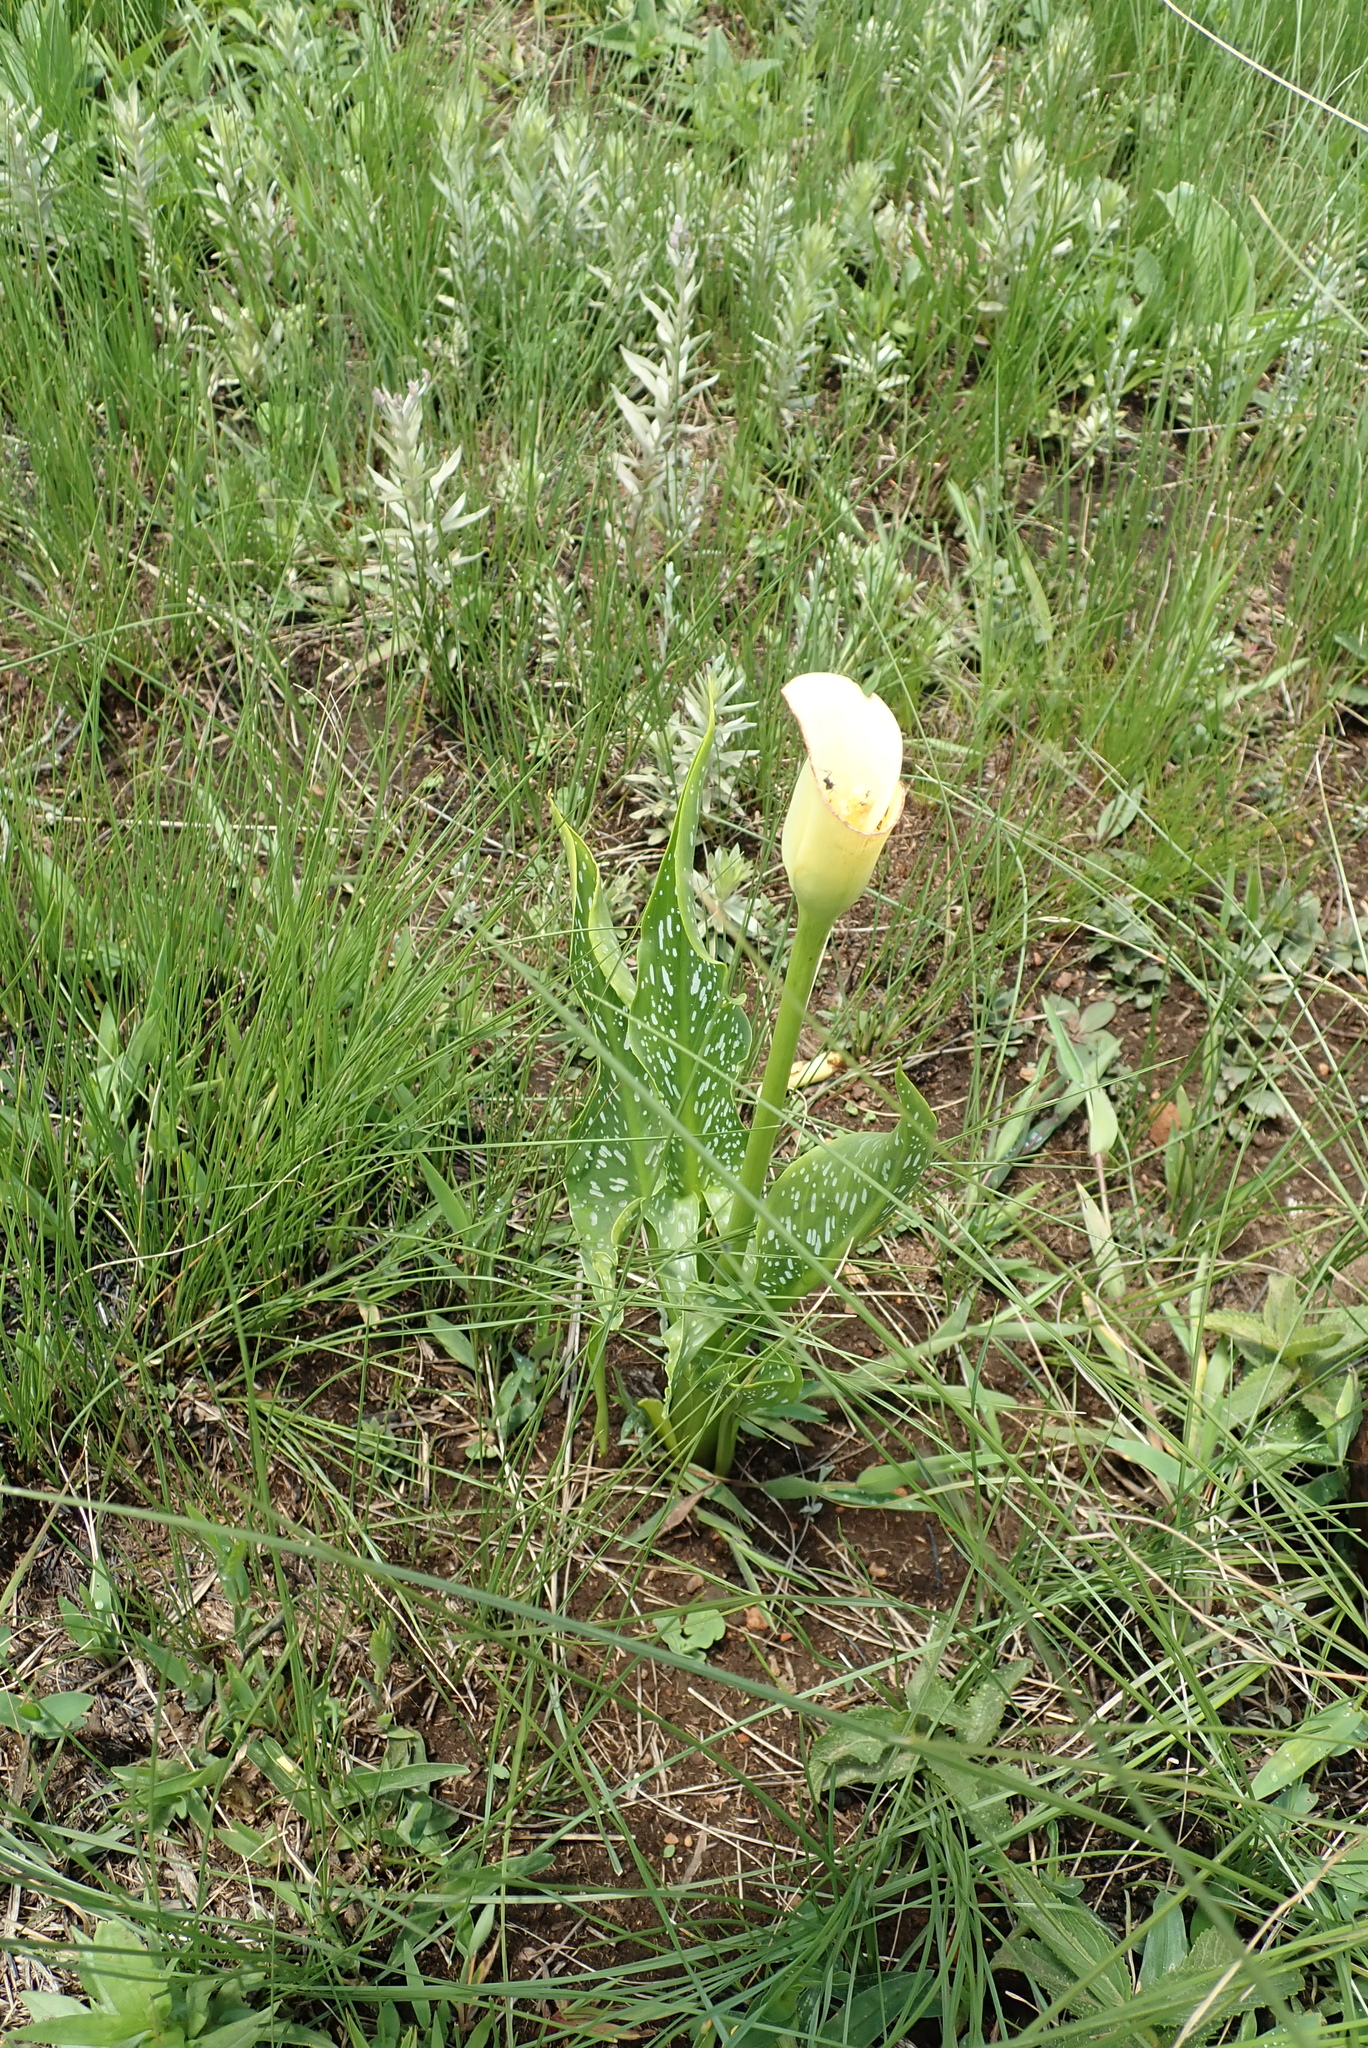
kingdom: Plantae
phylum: Tracheophyta
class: Liliopsida
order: Alismatales
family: Araceae
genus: Zantedeschia
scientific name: Zantedeschia albomaculata
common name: Spotted calla lily
